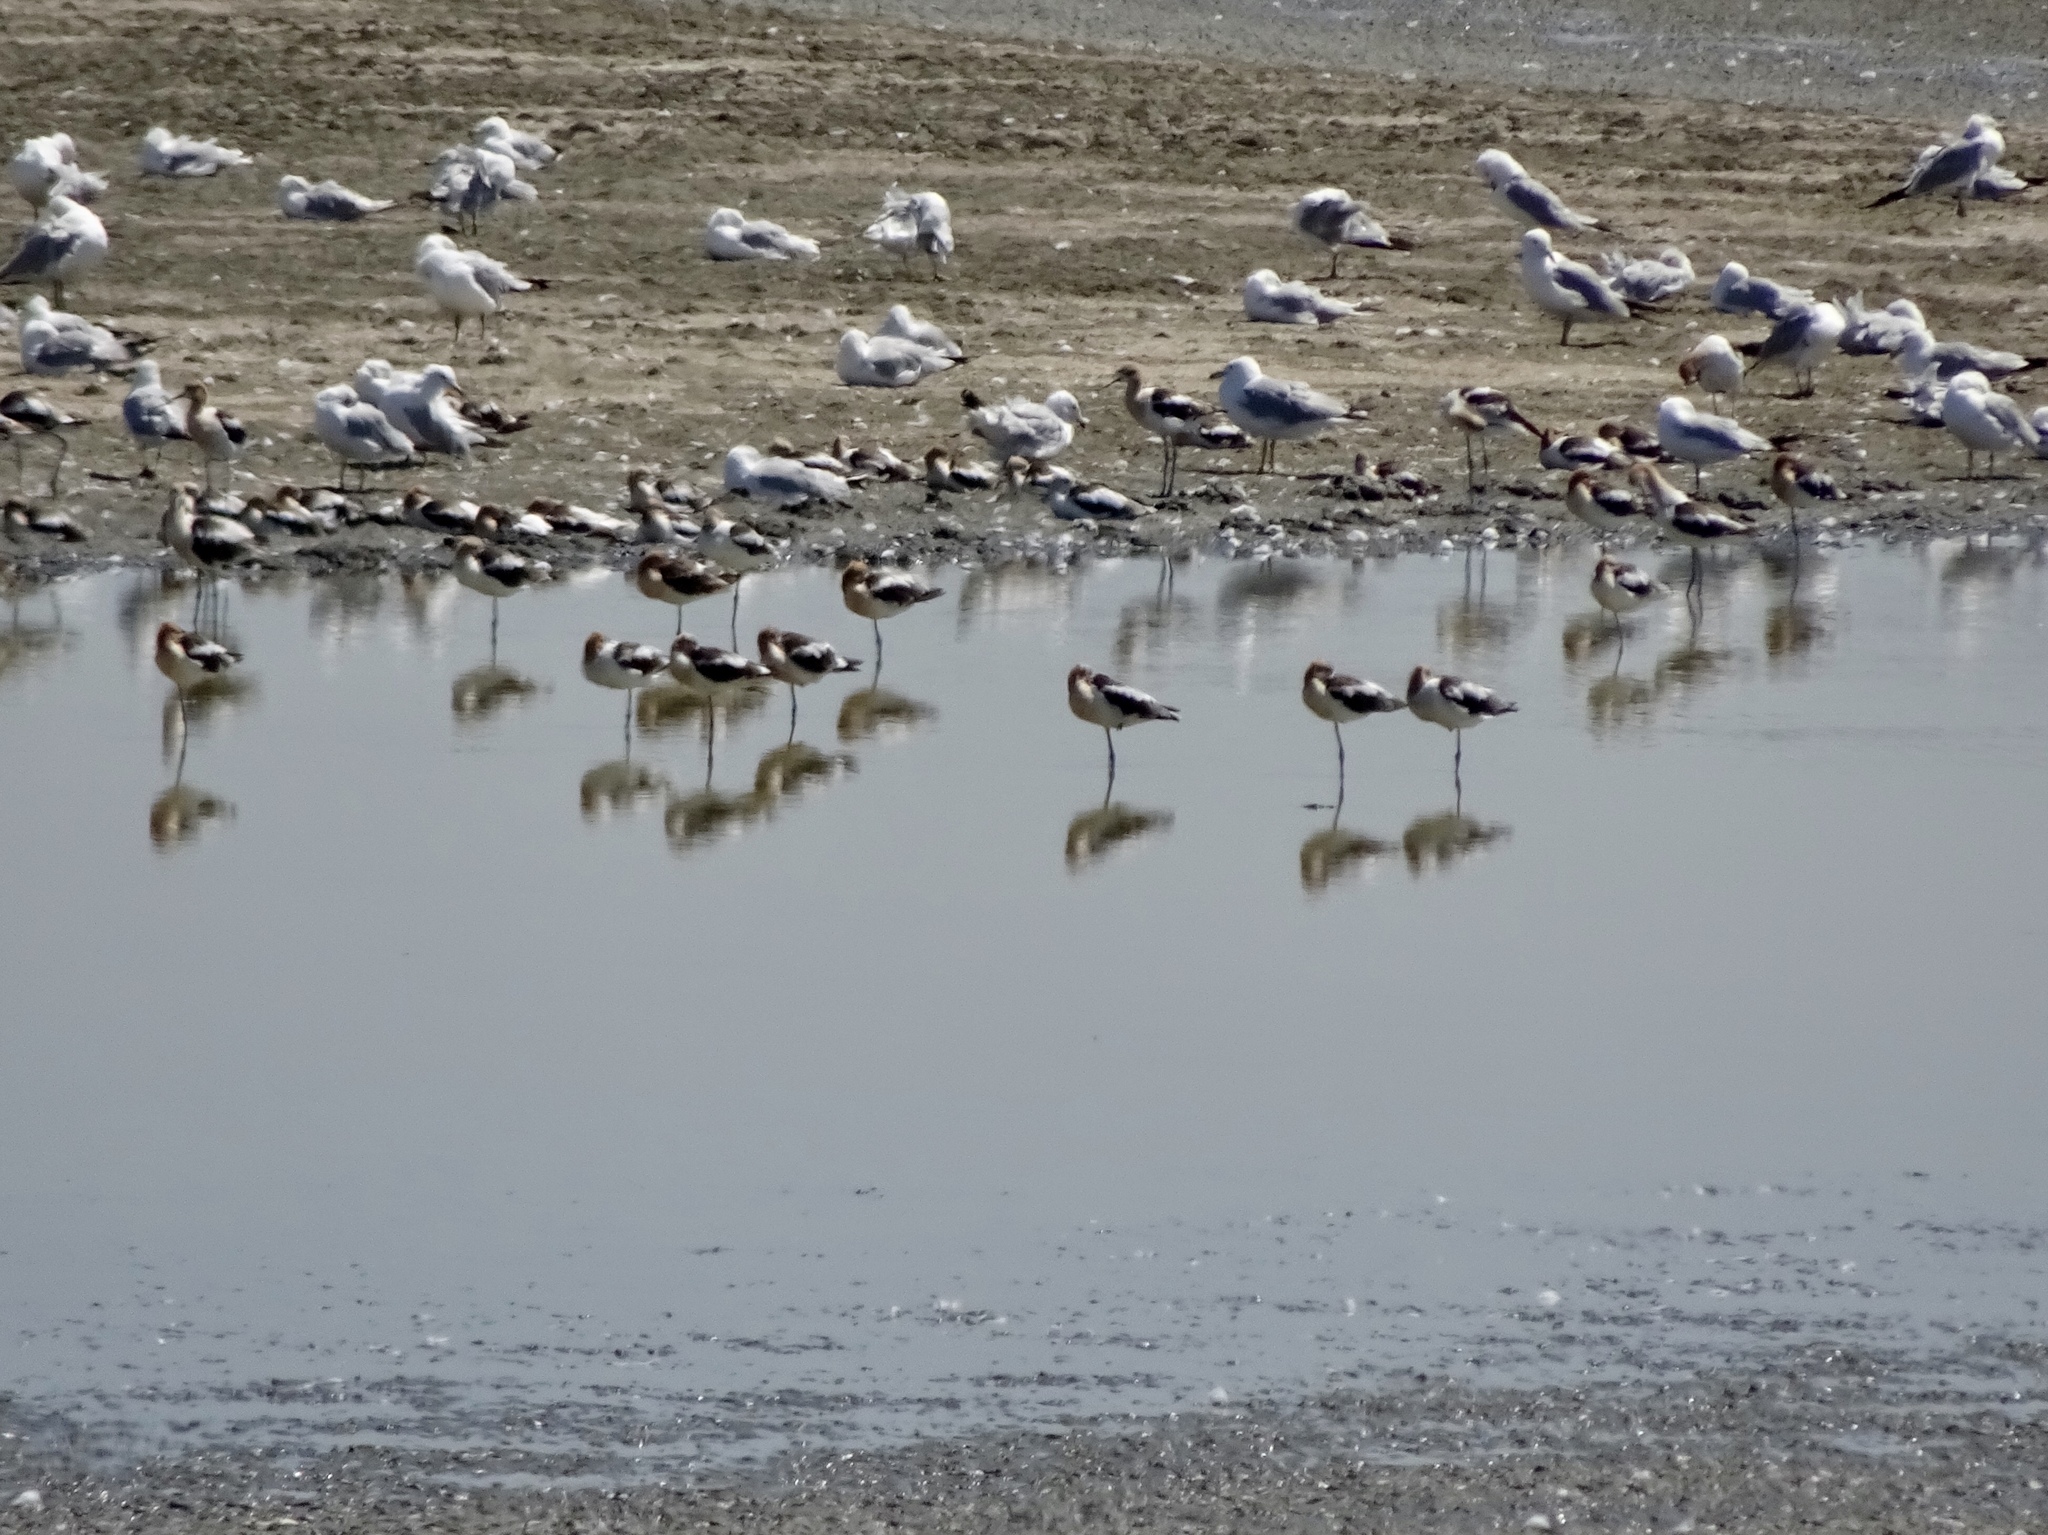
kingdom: Animalia
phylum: Chordata
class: Aves
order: Charadriiformes
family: Recurvirostridae
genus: Recurvirostra
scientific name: Recurvirostra americana
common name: American avocet
